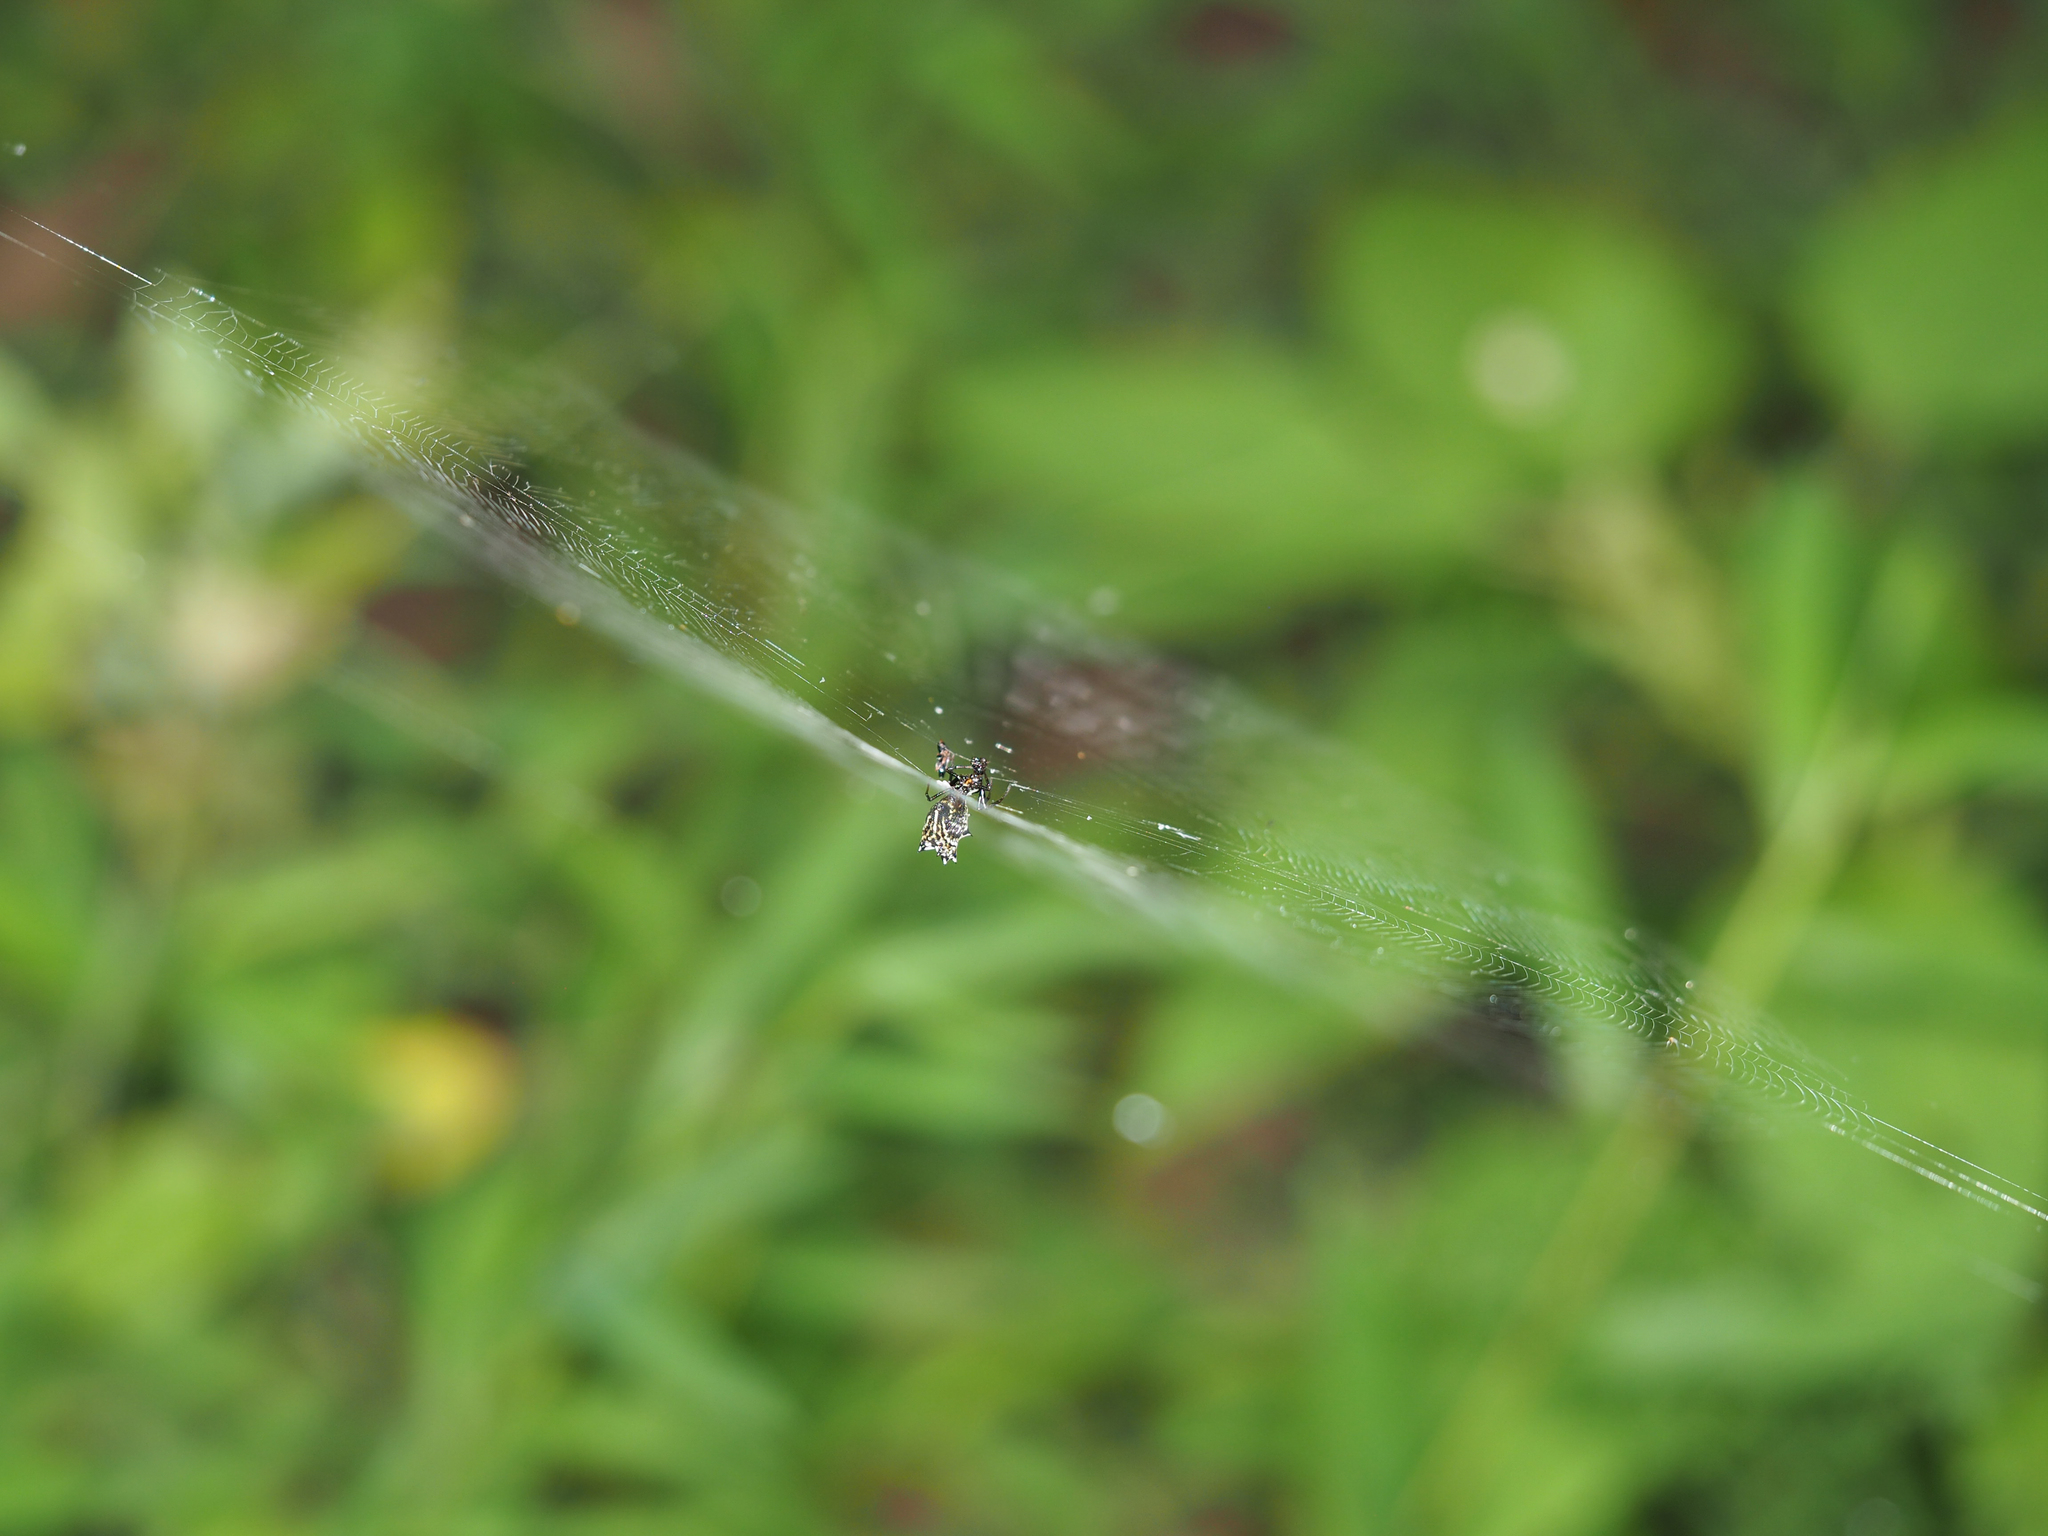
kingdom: Animalia
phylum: Arthropoda
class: Arachnida
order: Araneae
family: Araneidae
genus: Micrathena
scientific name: Micrathena gracilis
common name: Orb weavers
